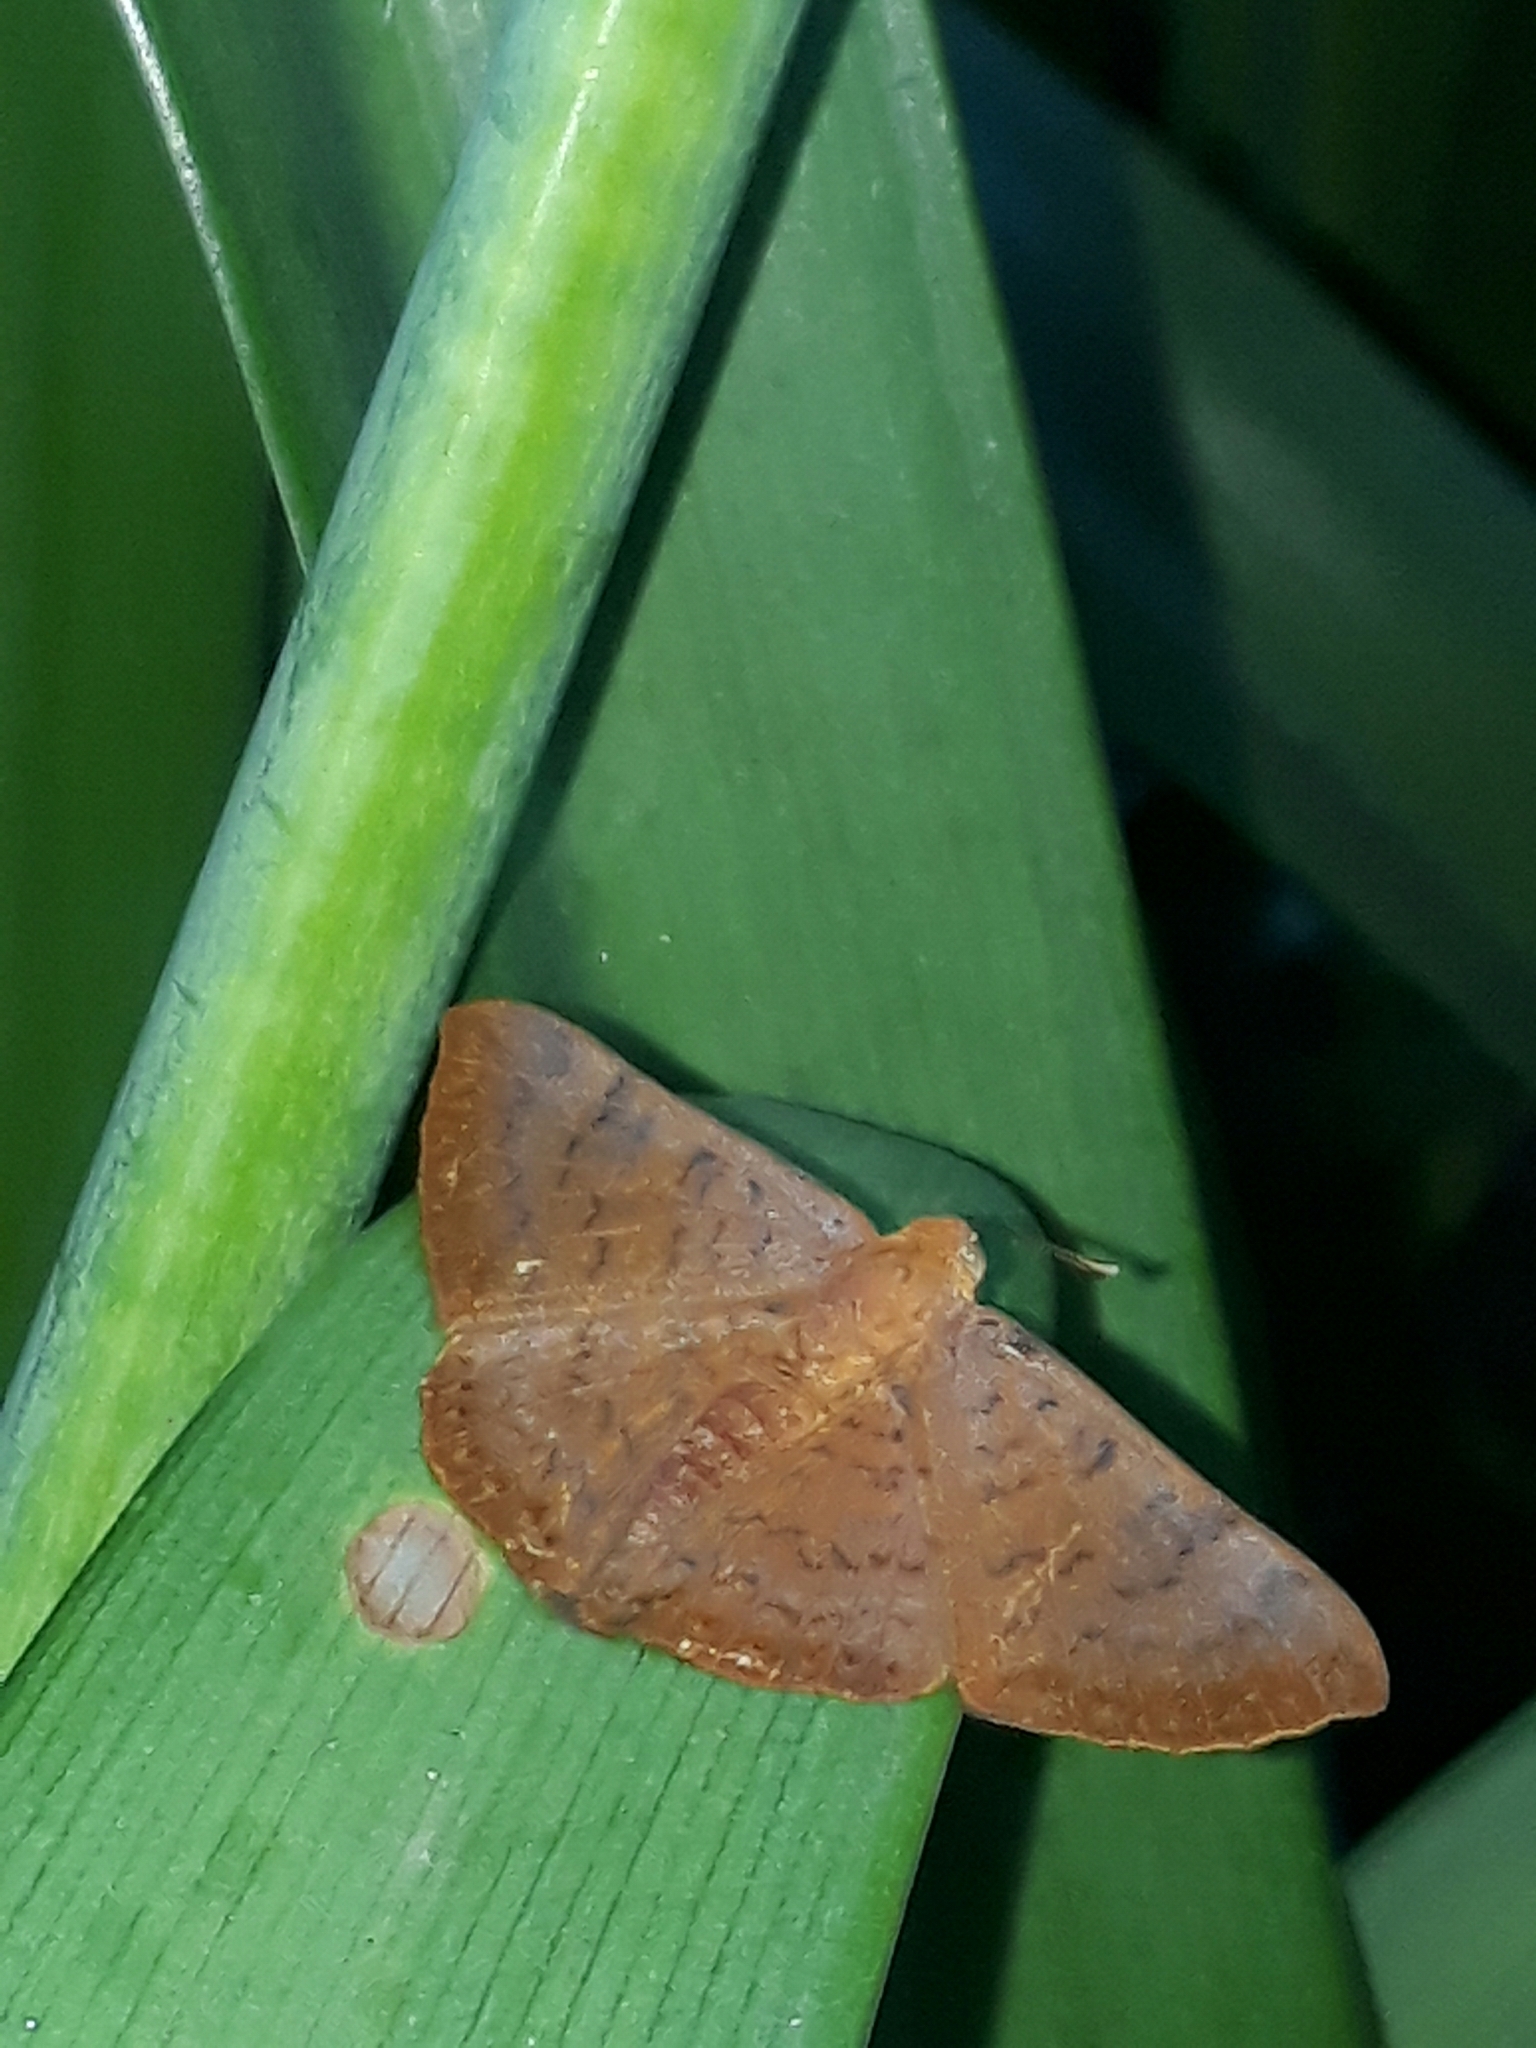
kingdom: Animalia
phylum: Arthropoda
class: Insecta
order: Lepidoptera
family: Lycaenidae
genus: Emesis
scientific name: Emesis russula
